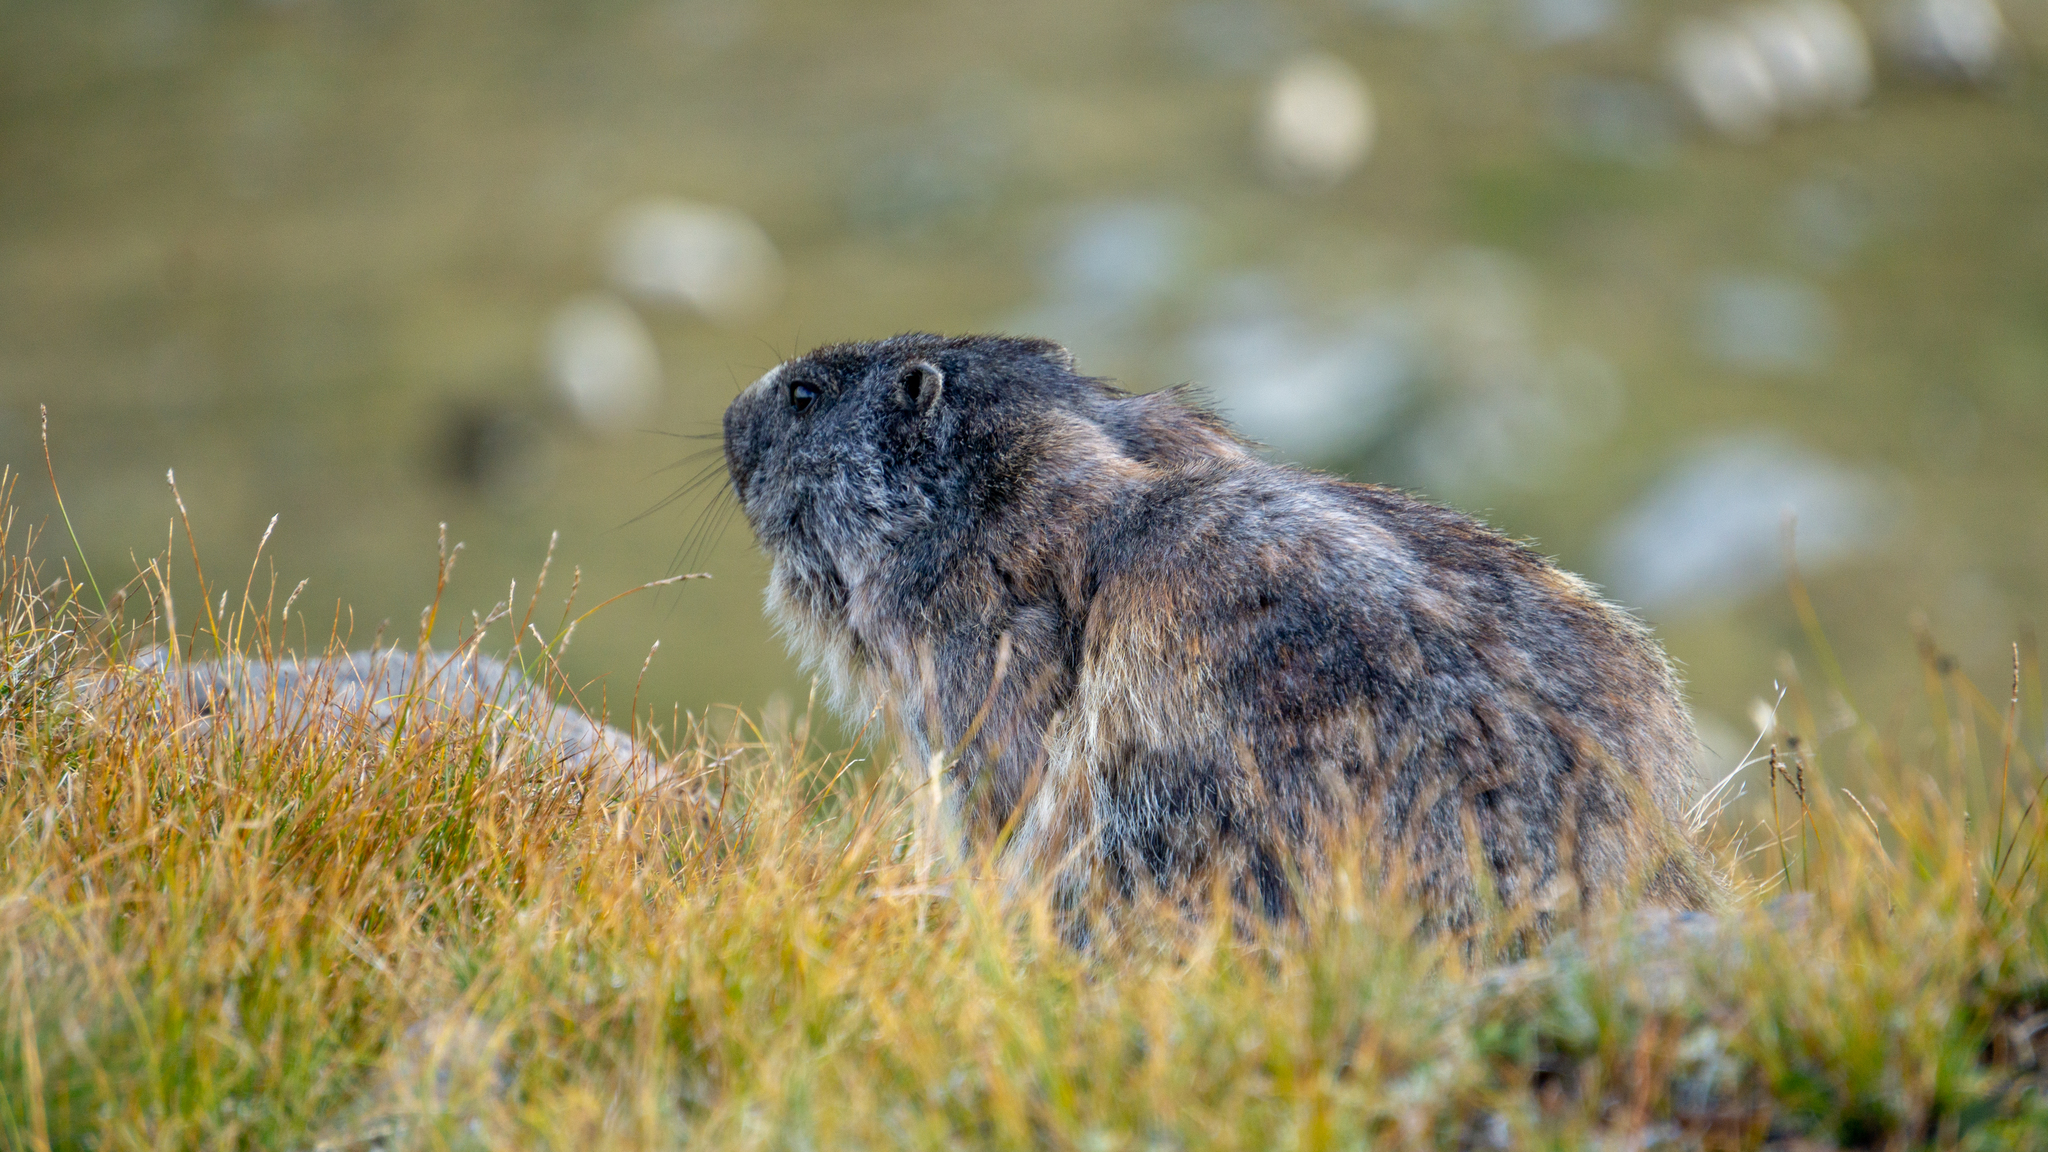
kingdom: Animalia
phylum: Chordata
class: Mammalia
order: Rodentia
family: Sciuridae
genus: Marmota
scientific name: Marmota marmota
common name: Alpine marmot
